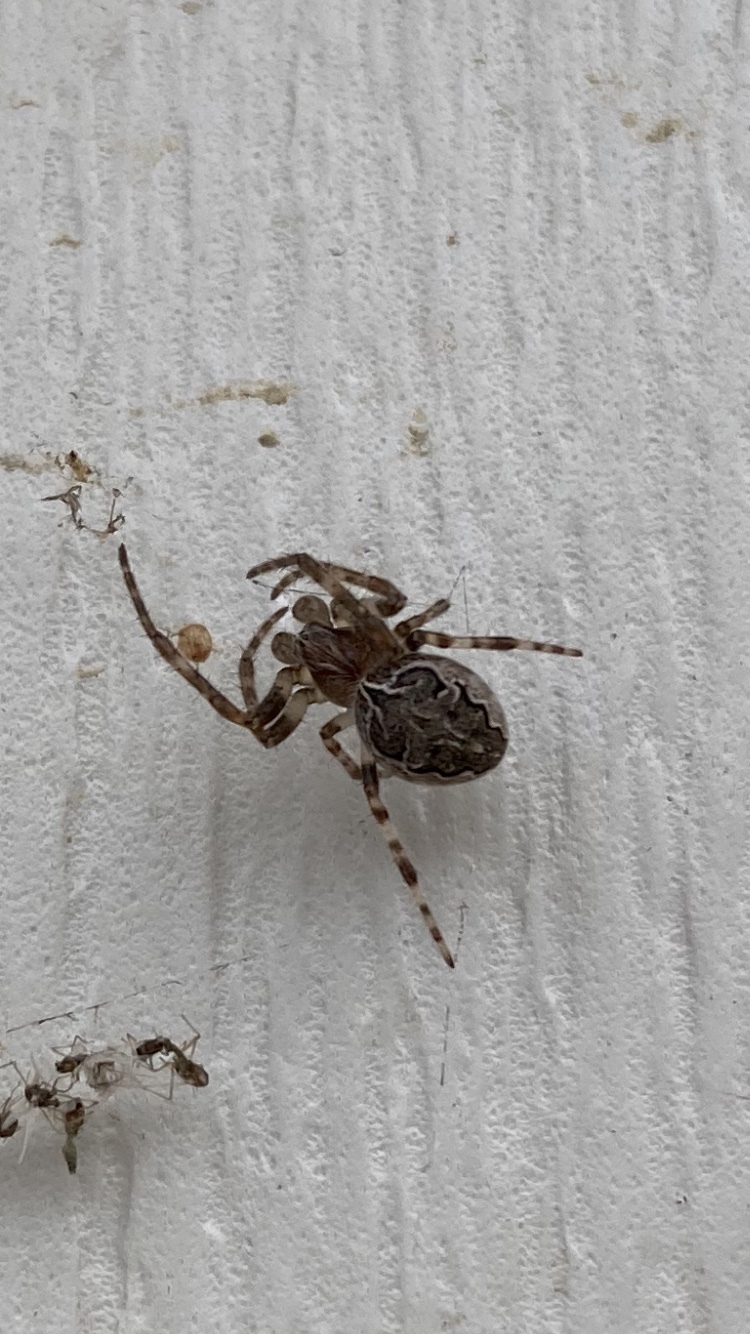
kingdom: Animalia
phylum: Arthropoda
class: Arachnida
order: Araneae
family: Araneidae
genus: Larinioides
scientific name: Larinioides sclopetarius
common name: Bridge orbweaver
